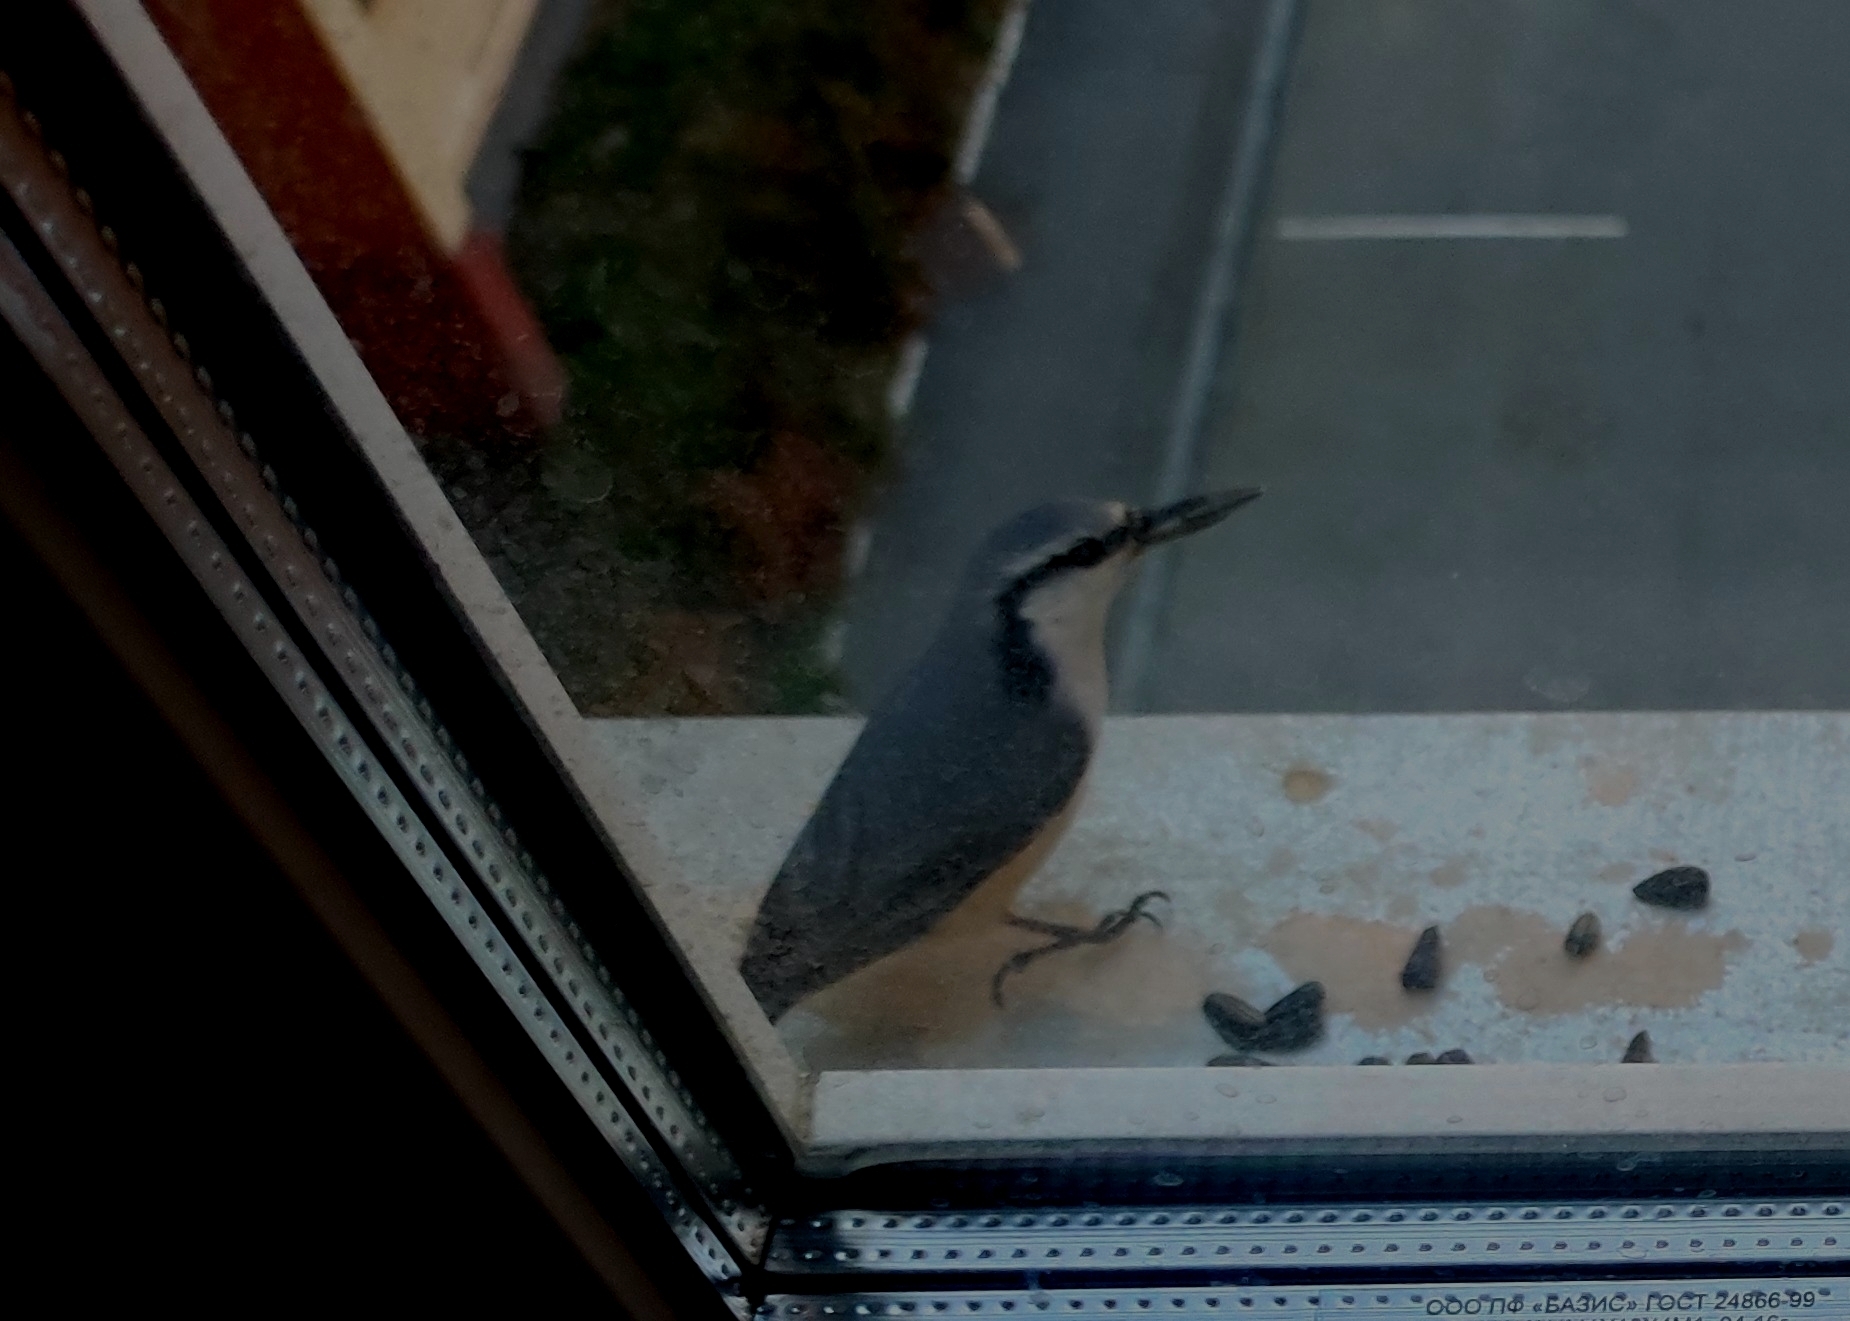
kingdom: Animalia
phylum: Chordata
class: Aves
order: Passeriformes
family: Sittidae
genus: Sitta
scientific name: Sitta europaea
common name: Eurasian nuthatch
